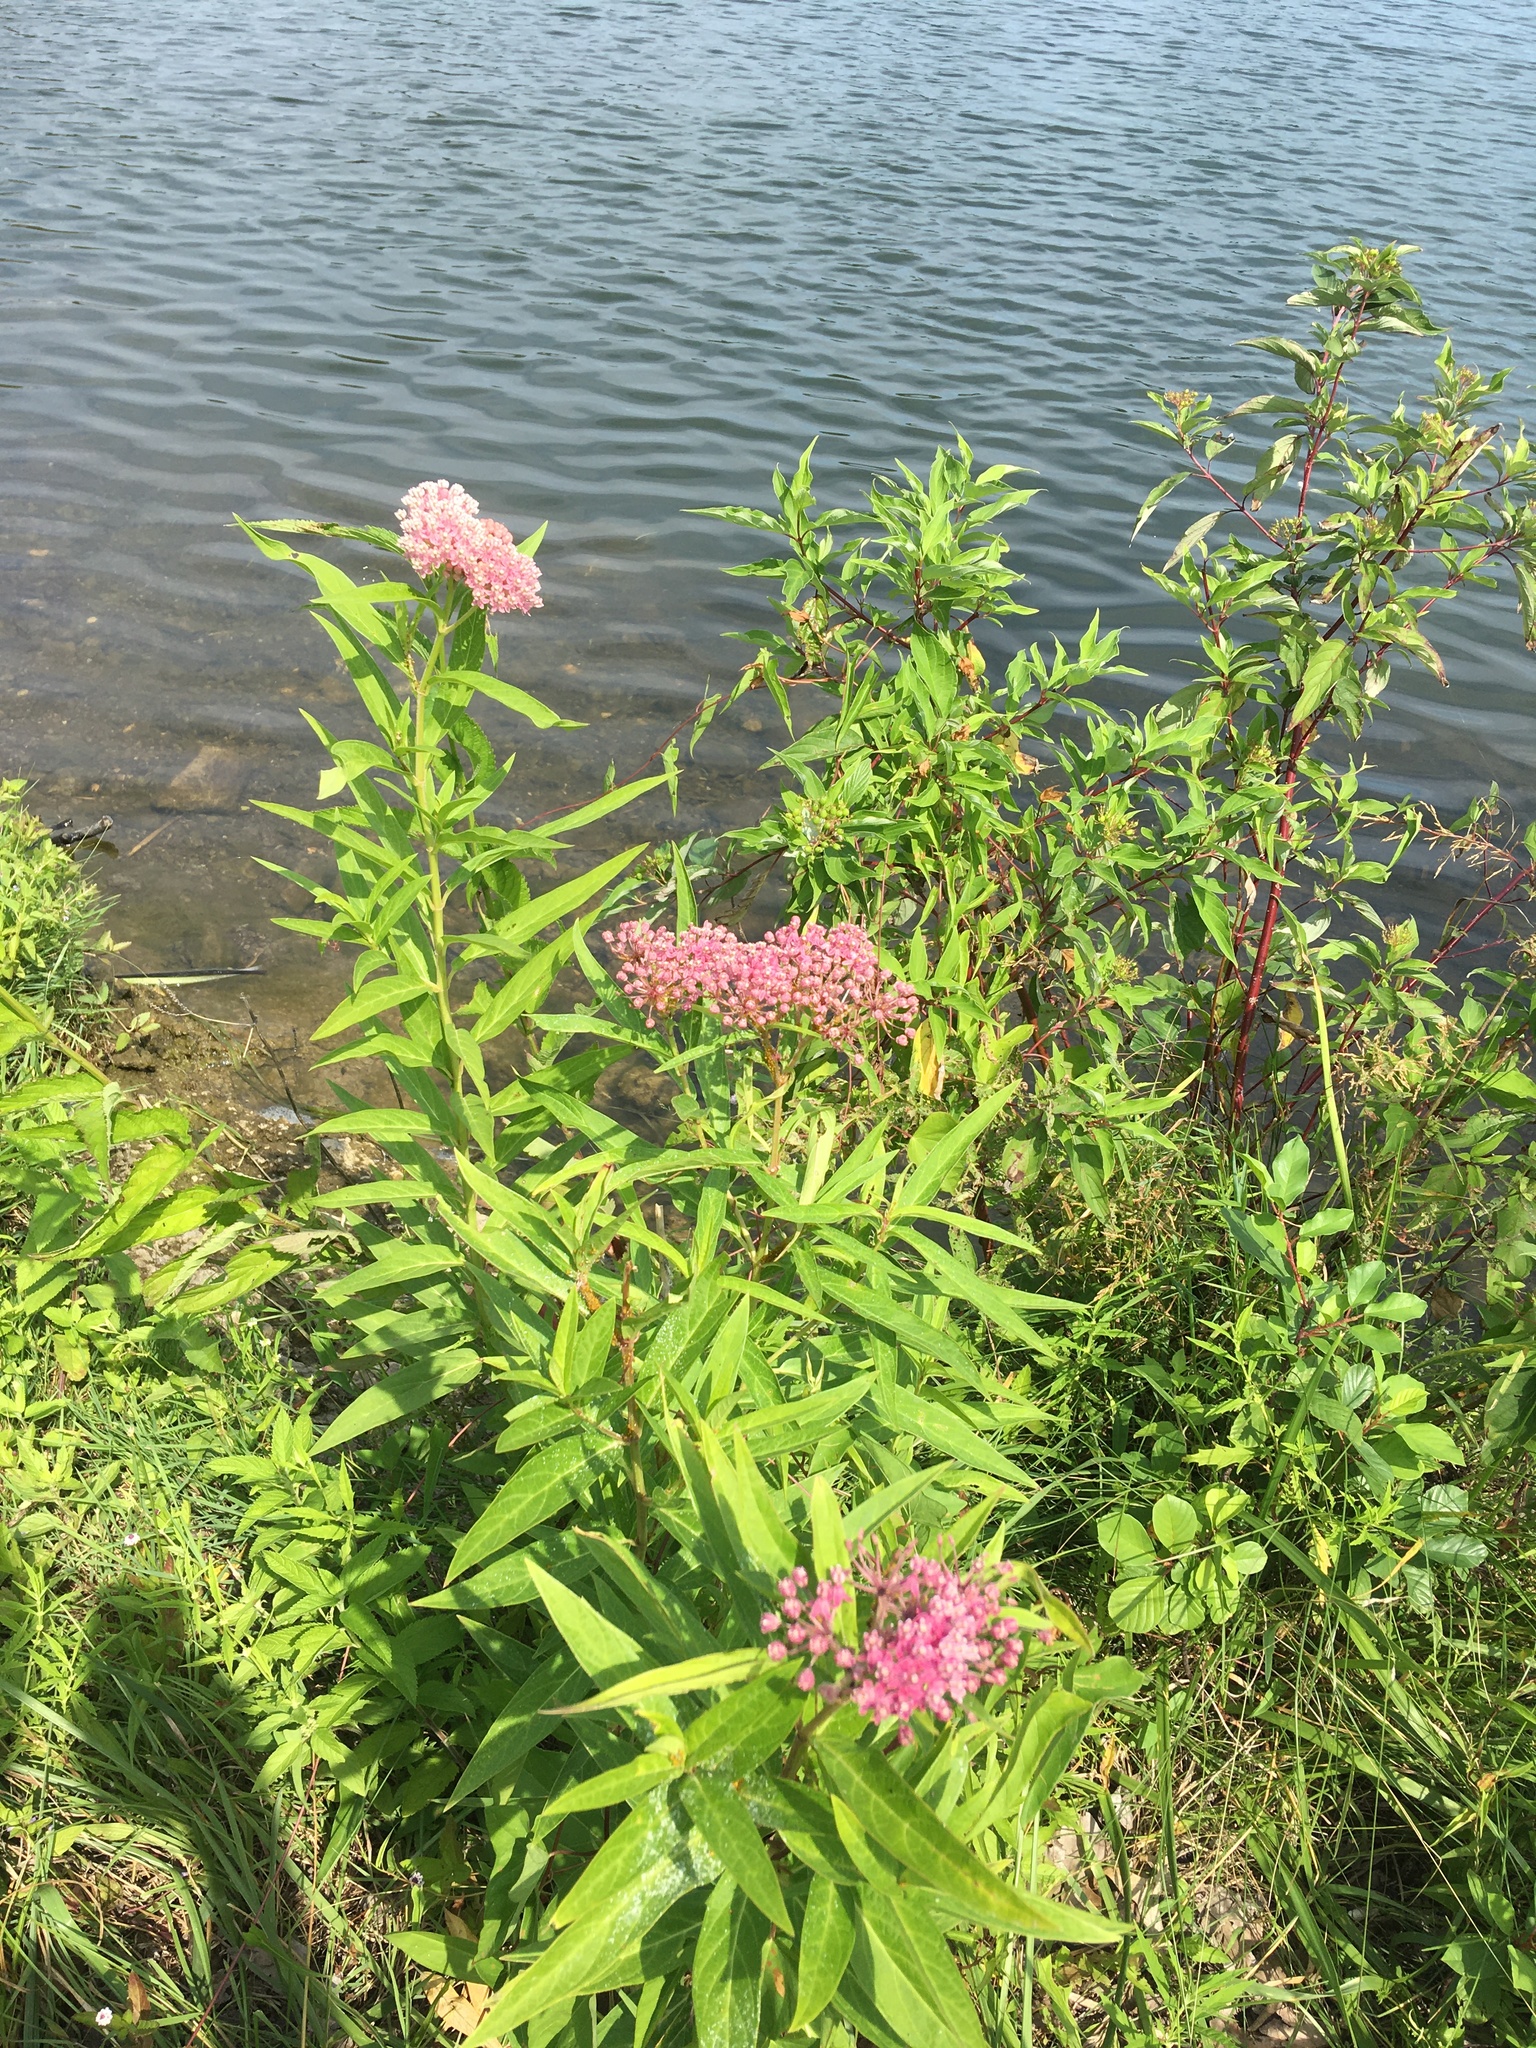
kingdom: Plantae
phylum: Tracheophyta
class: Magnoliopsida
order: Gentianales
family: Apocynaceae
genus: Asclepias
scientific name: Asclepias incarnata
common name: Swamp milkweed
